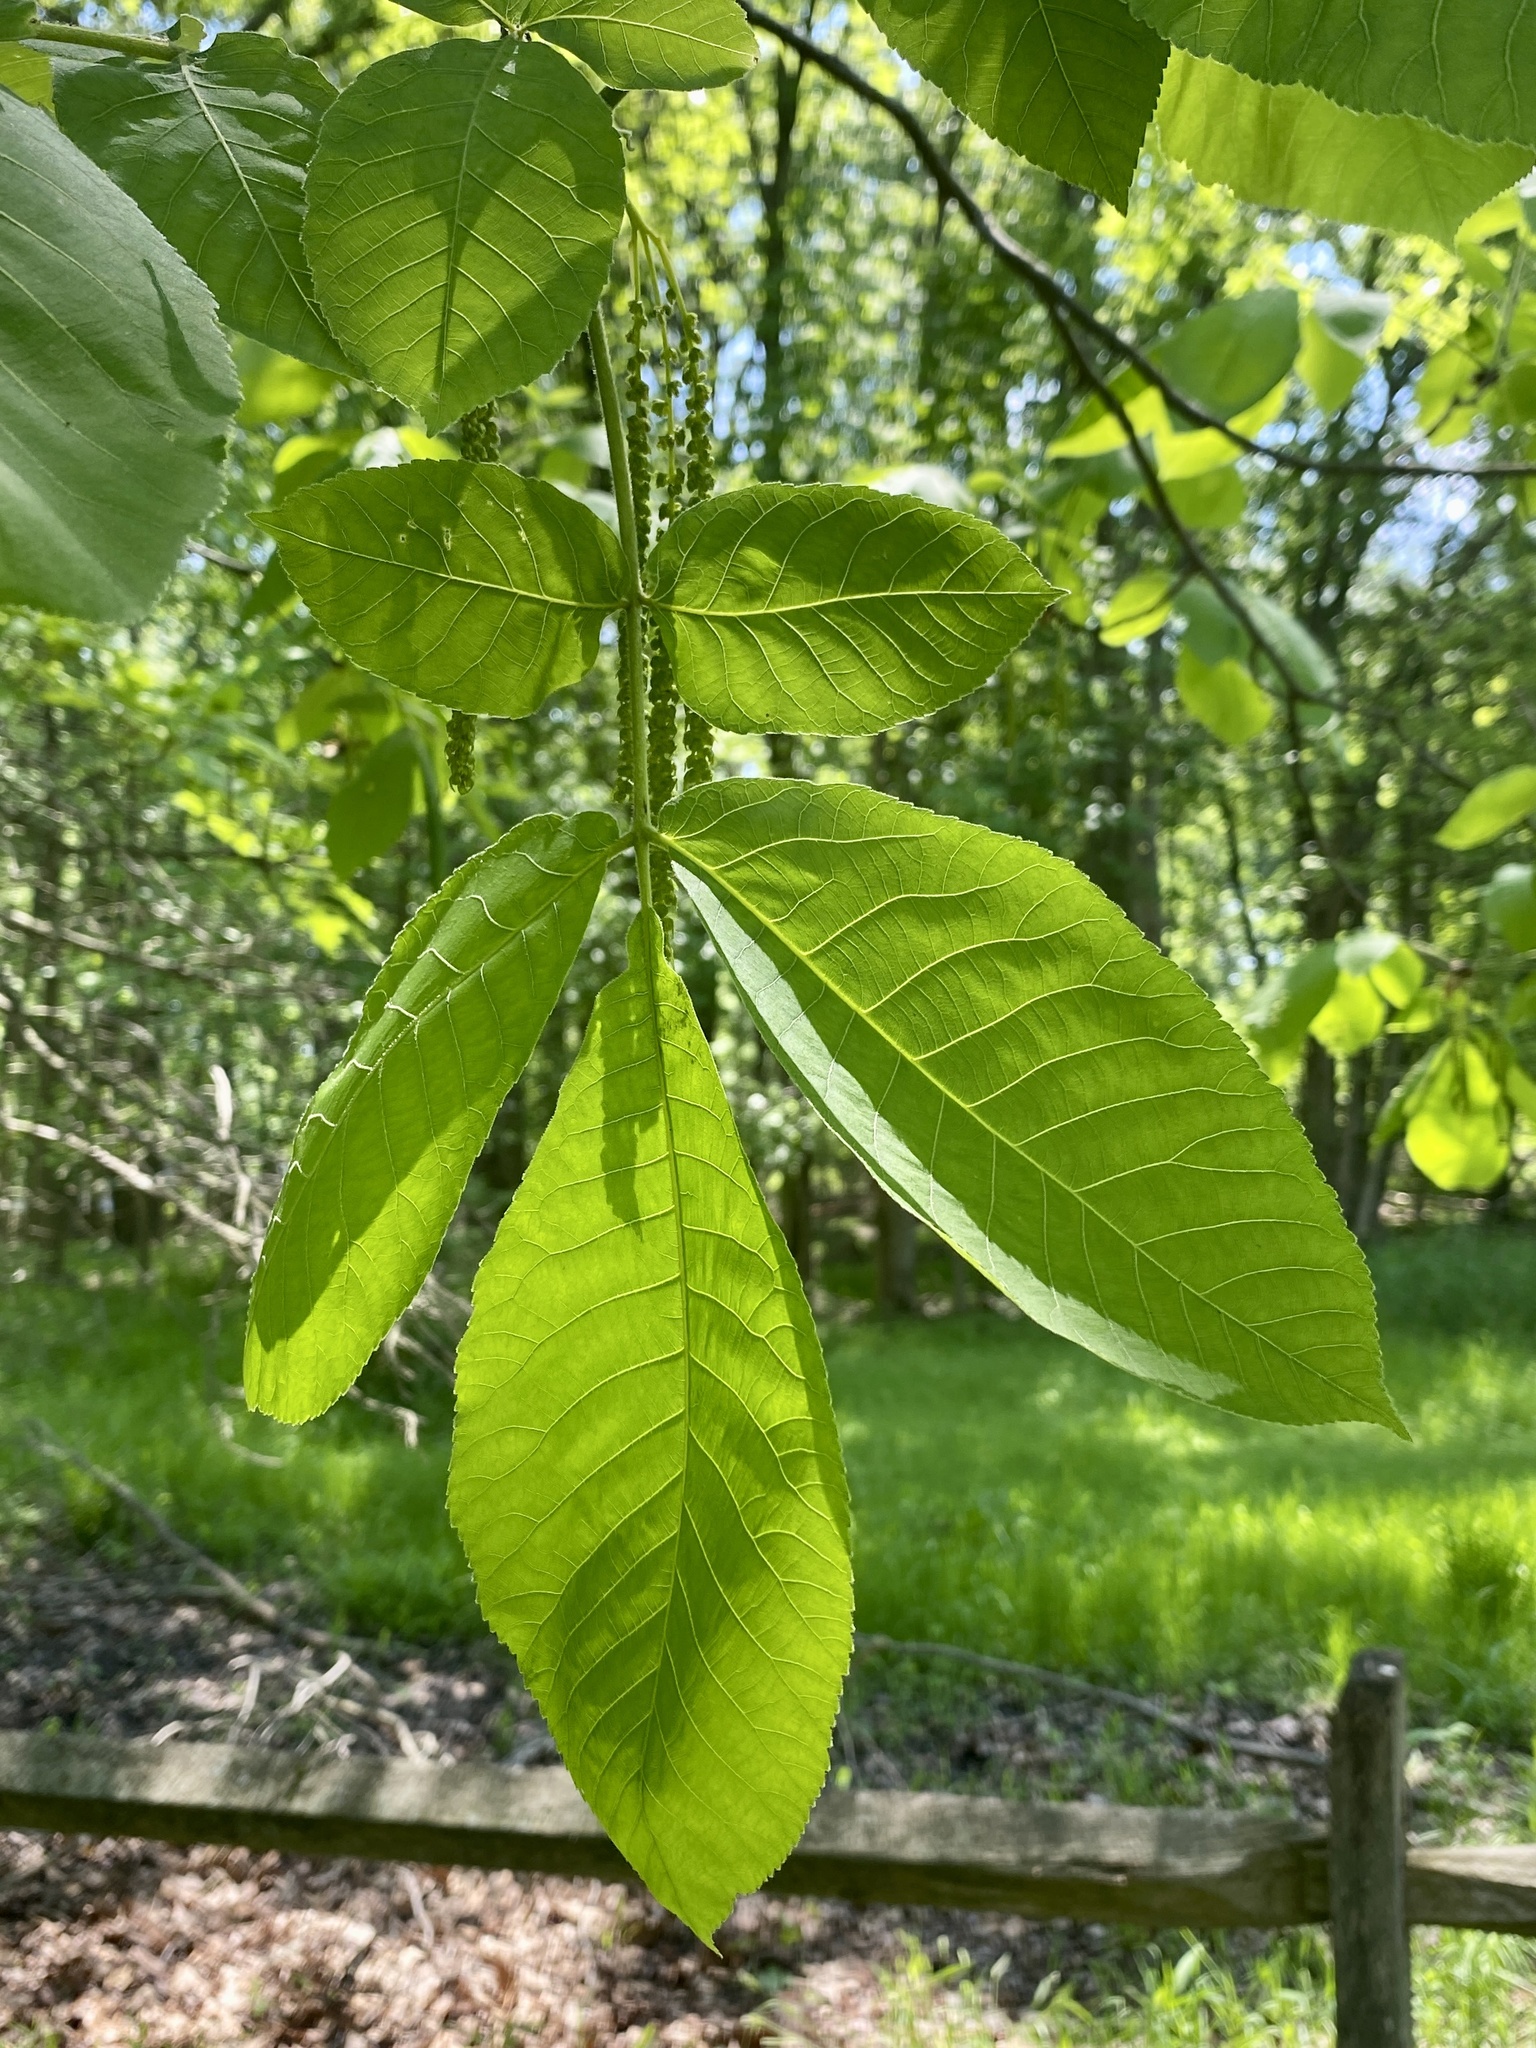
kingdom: Plantae
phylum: Tracheophyta
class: Magnoliopsida
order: Fagales
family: Juglandaceae
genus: Carya
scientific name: Carya ovata
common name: Shagbark hickory
